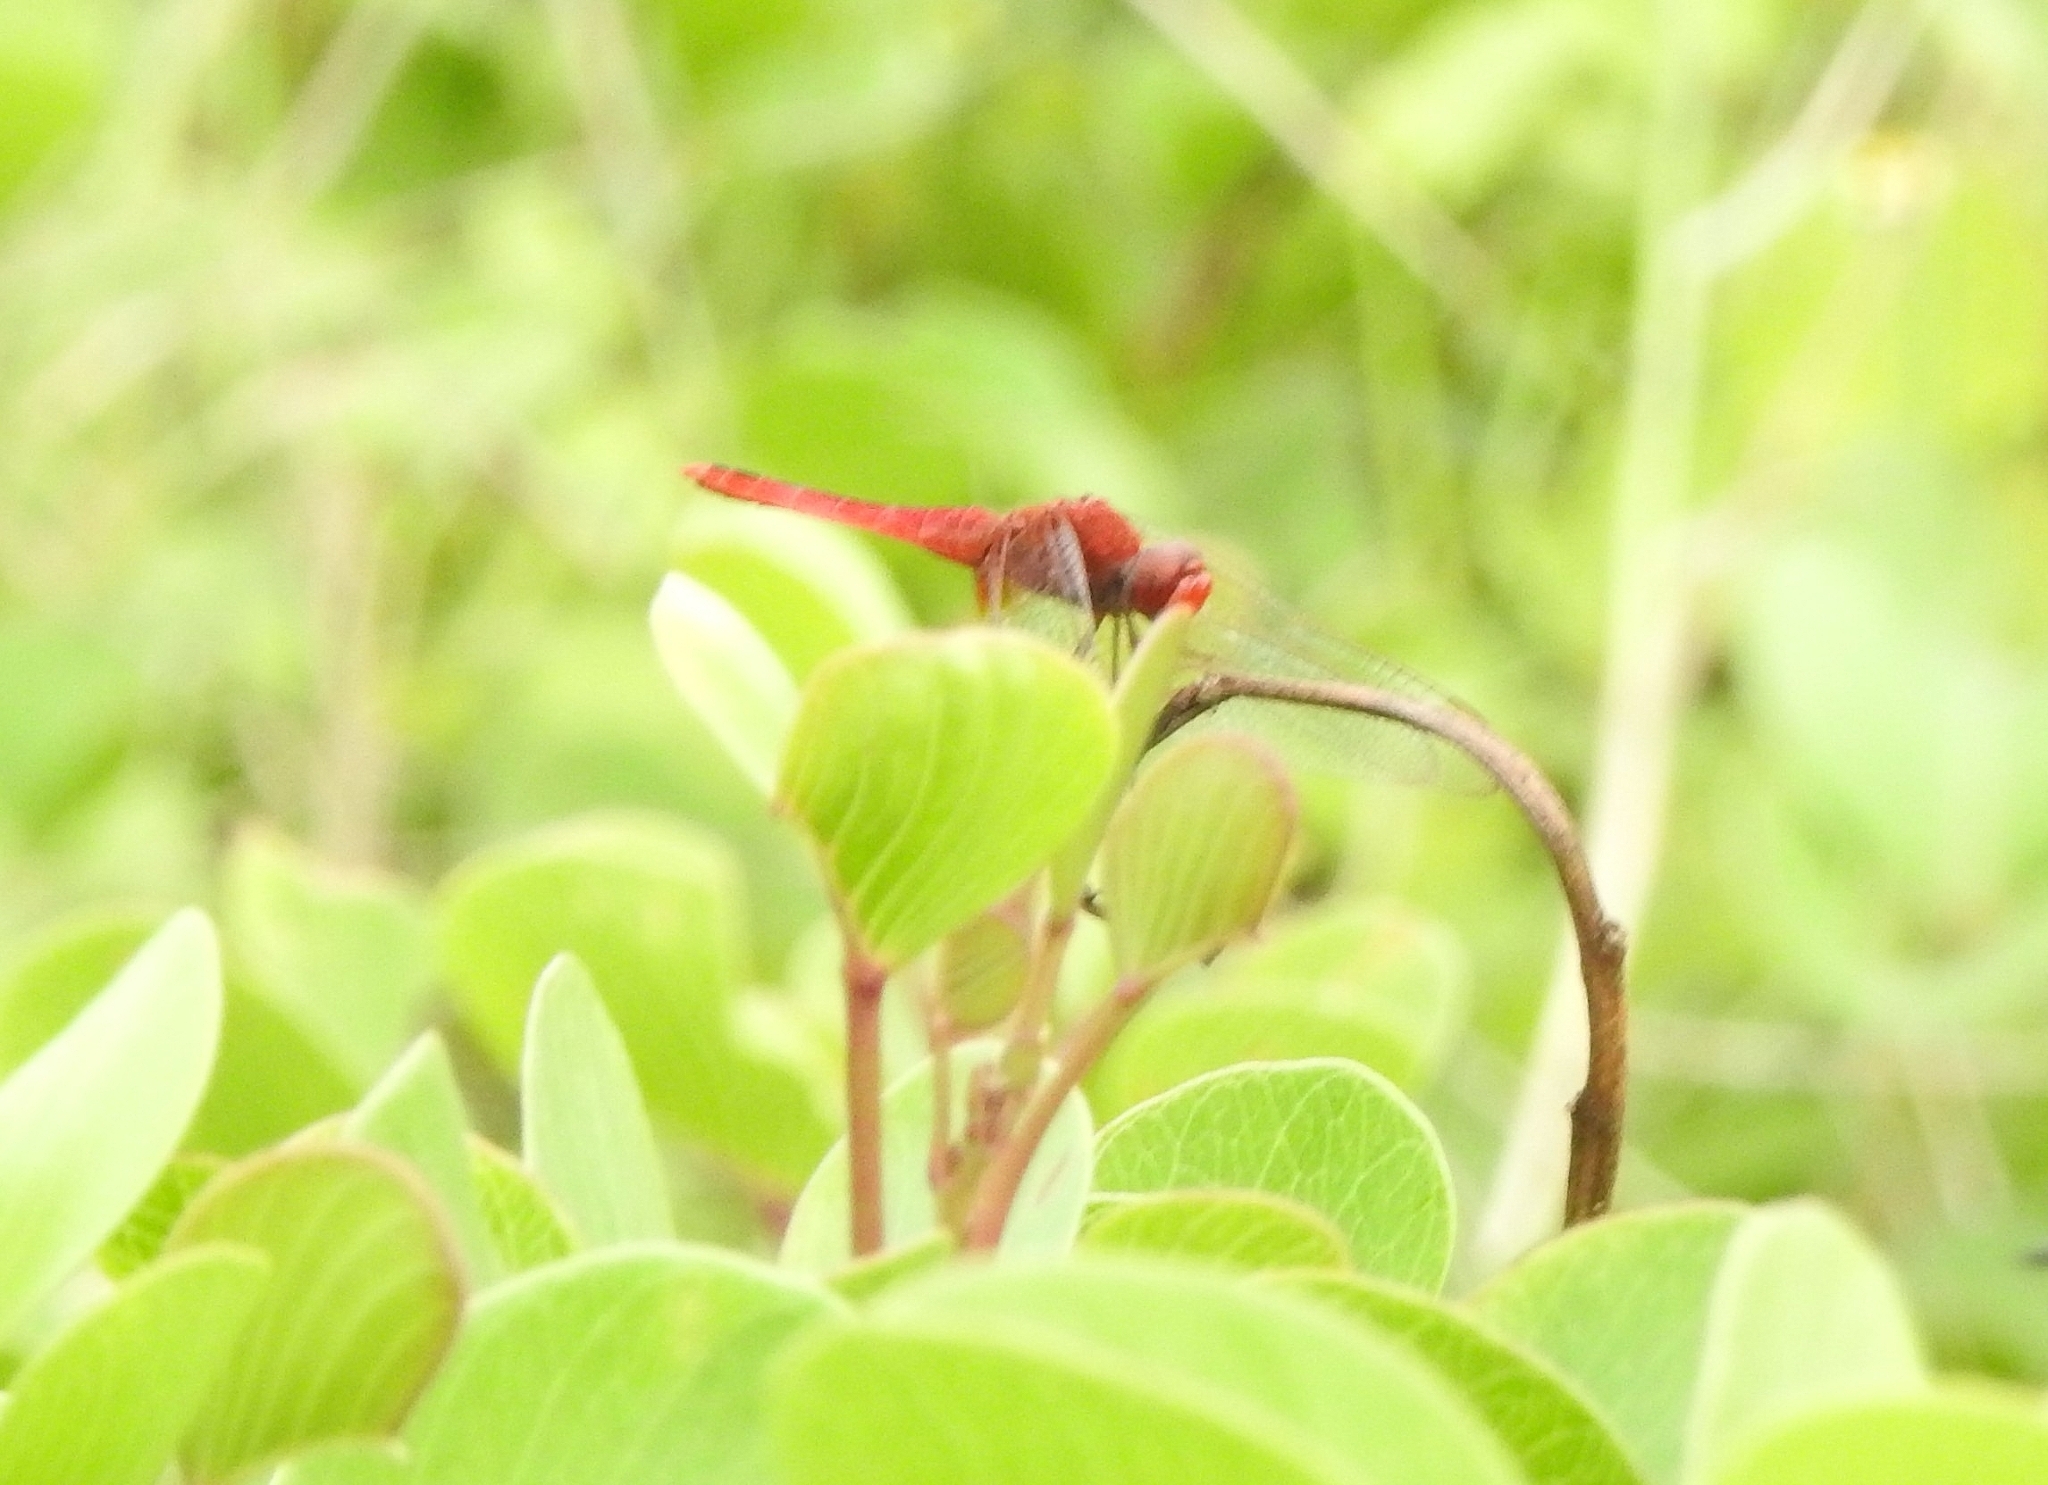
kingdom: Animalia
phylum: Arthropoda
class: Insecta
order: Odonata
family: Libellulidae
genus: Crocothemis
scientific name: Crocothemis servilia
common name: Scarlet skimmer
